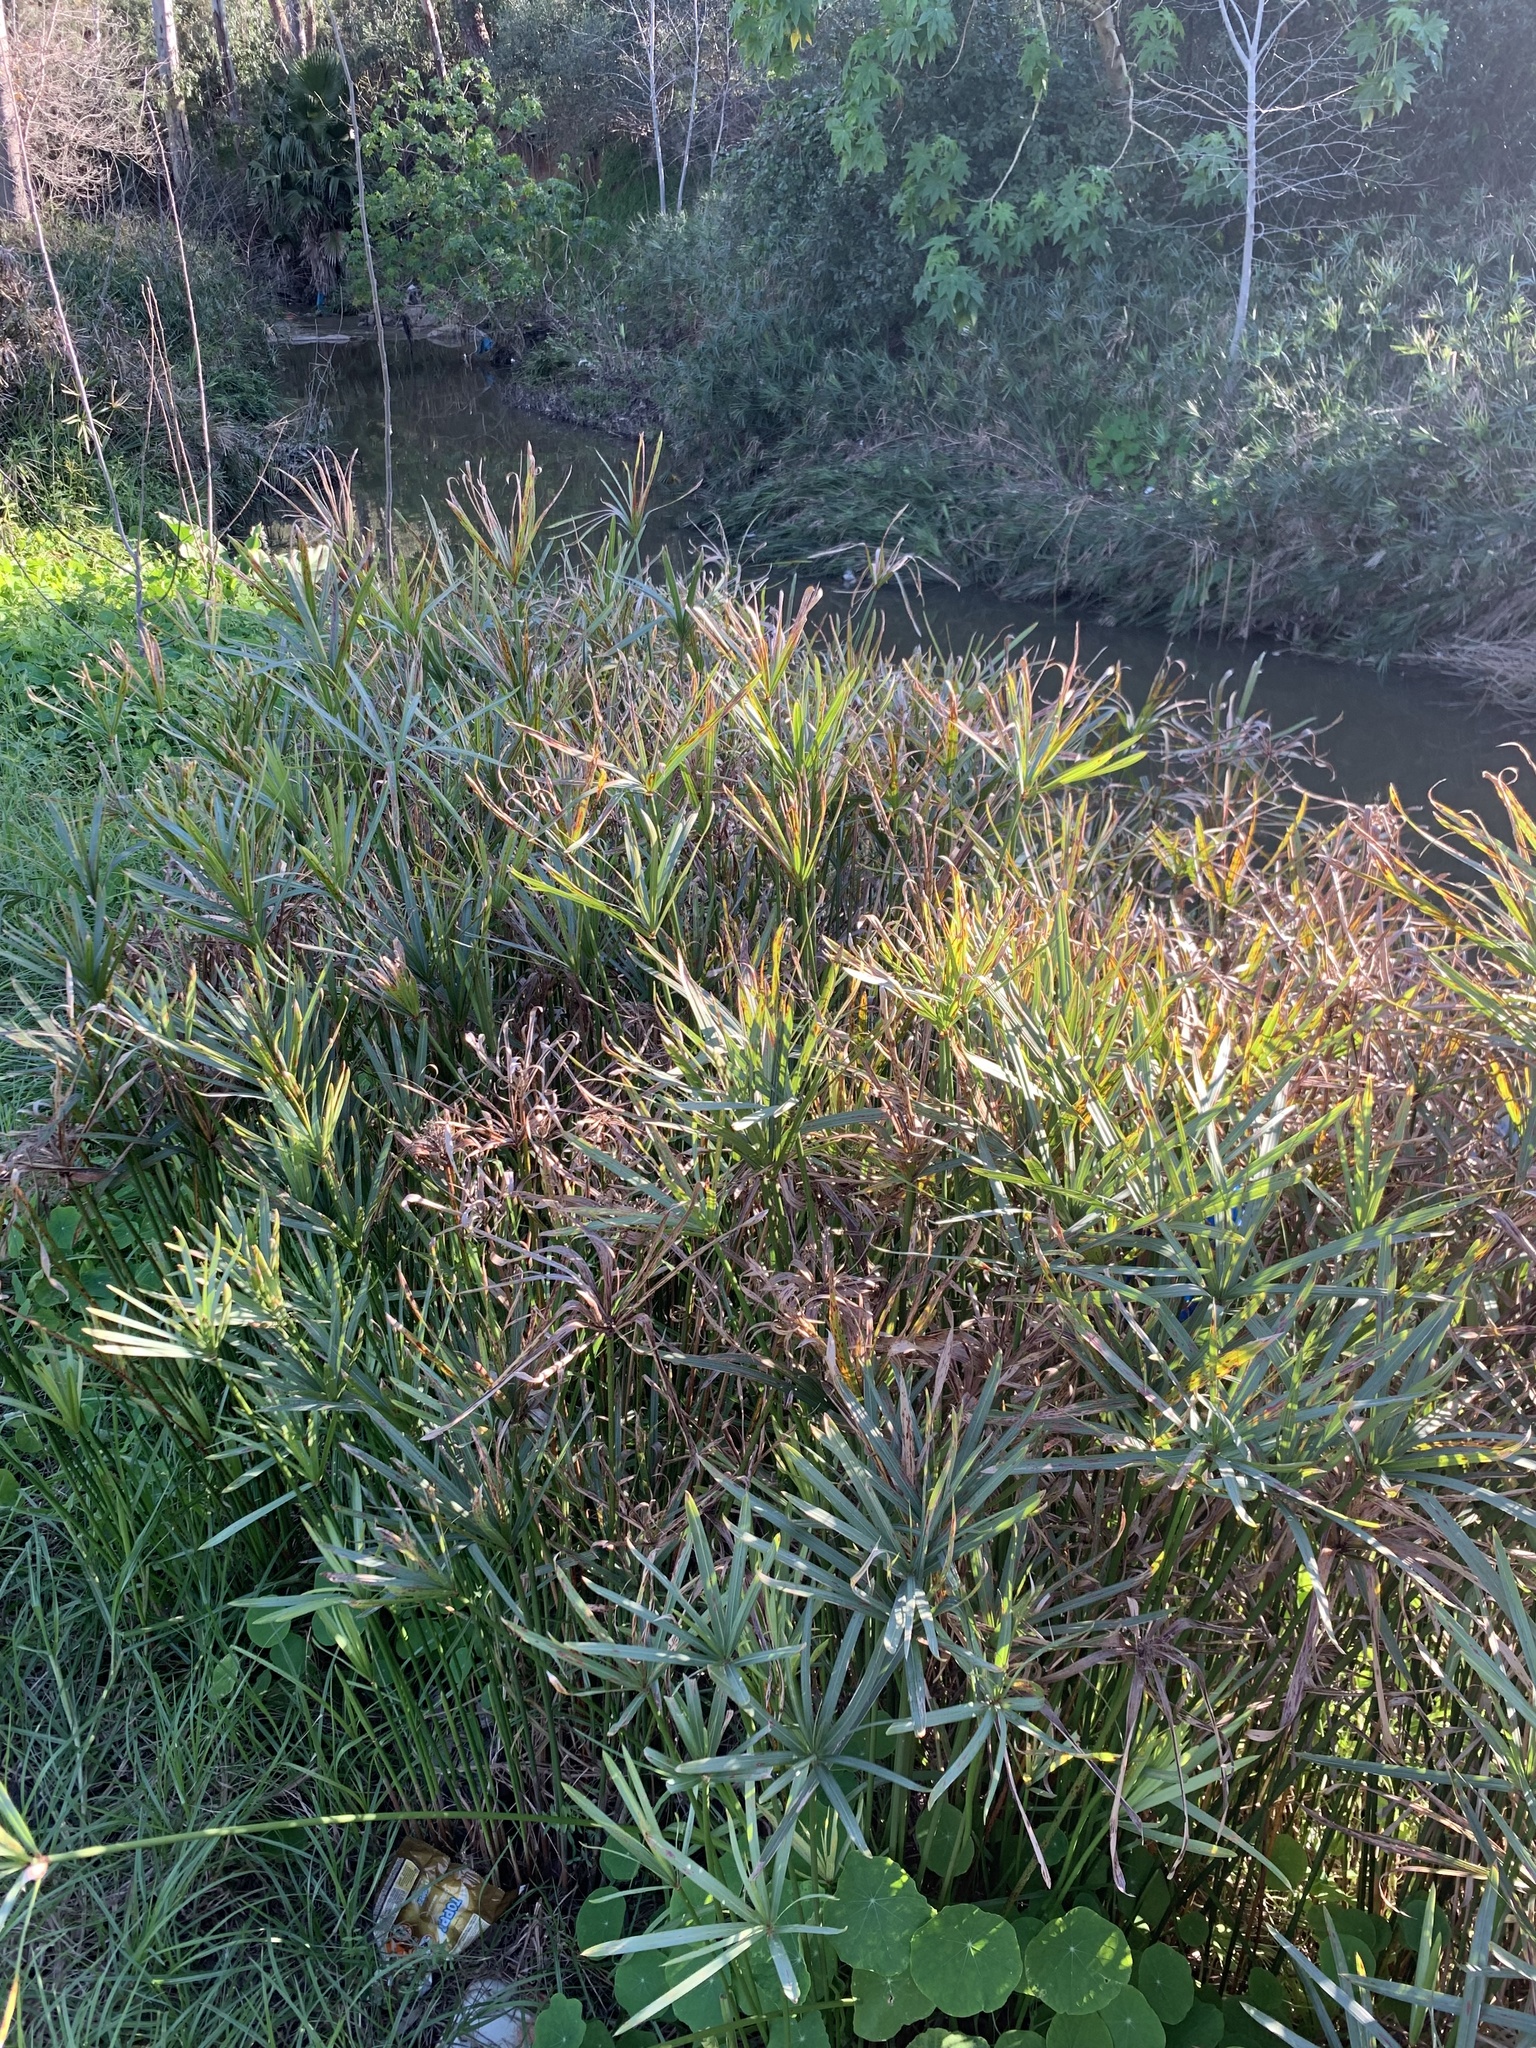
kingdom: Plantae
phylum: Tracheophyta
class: Liliopsida
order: Poales
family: Cyperaceae
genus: Cyperus
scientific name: Cyperus textilis
